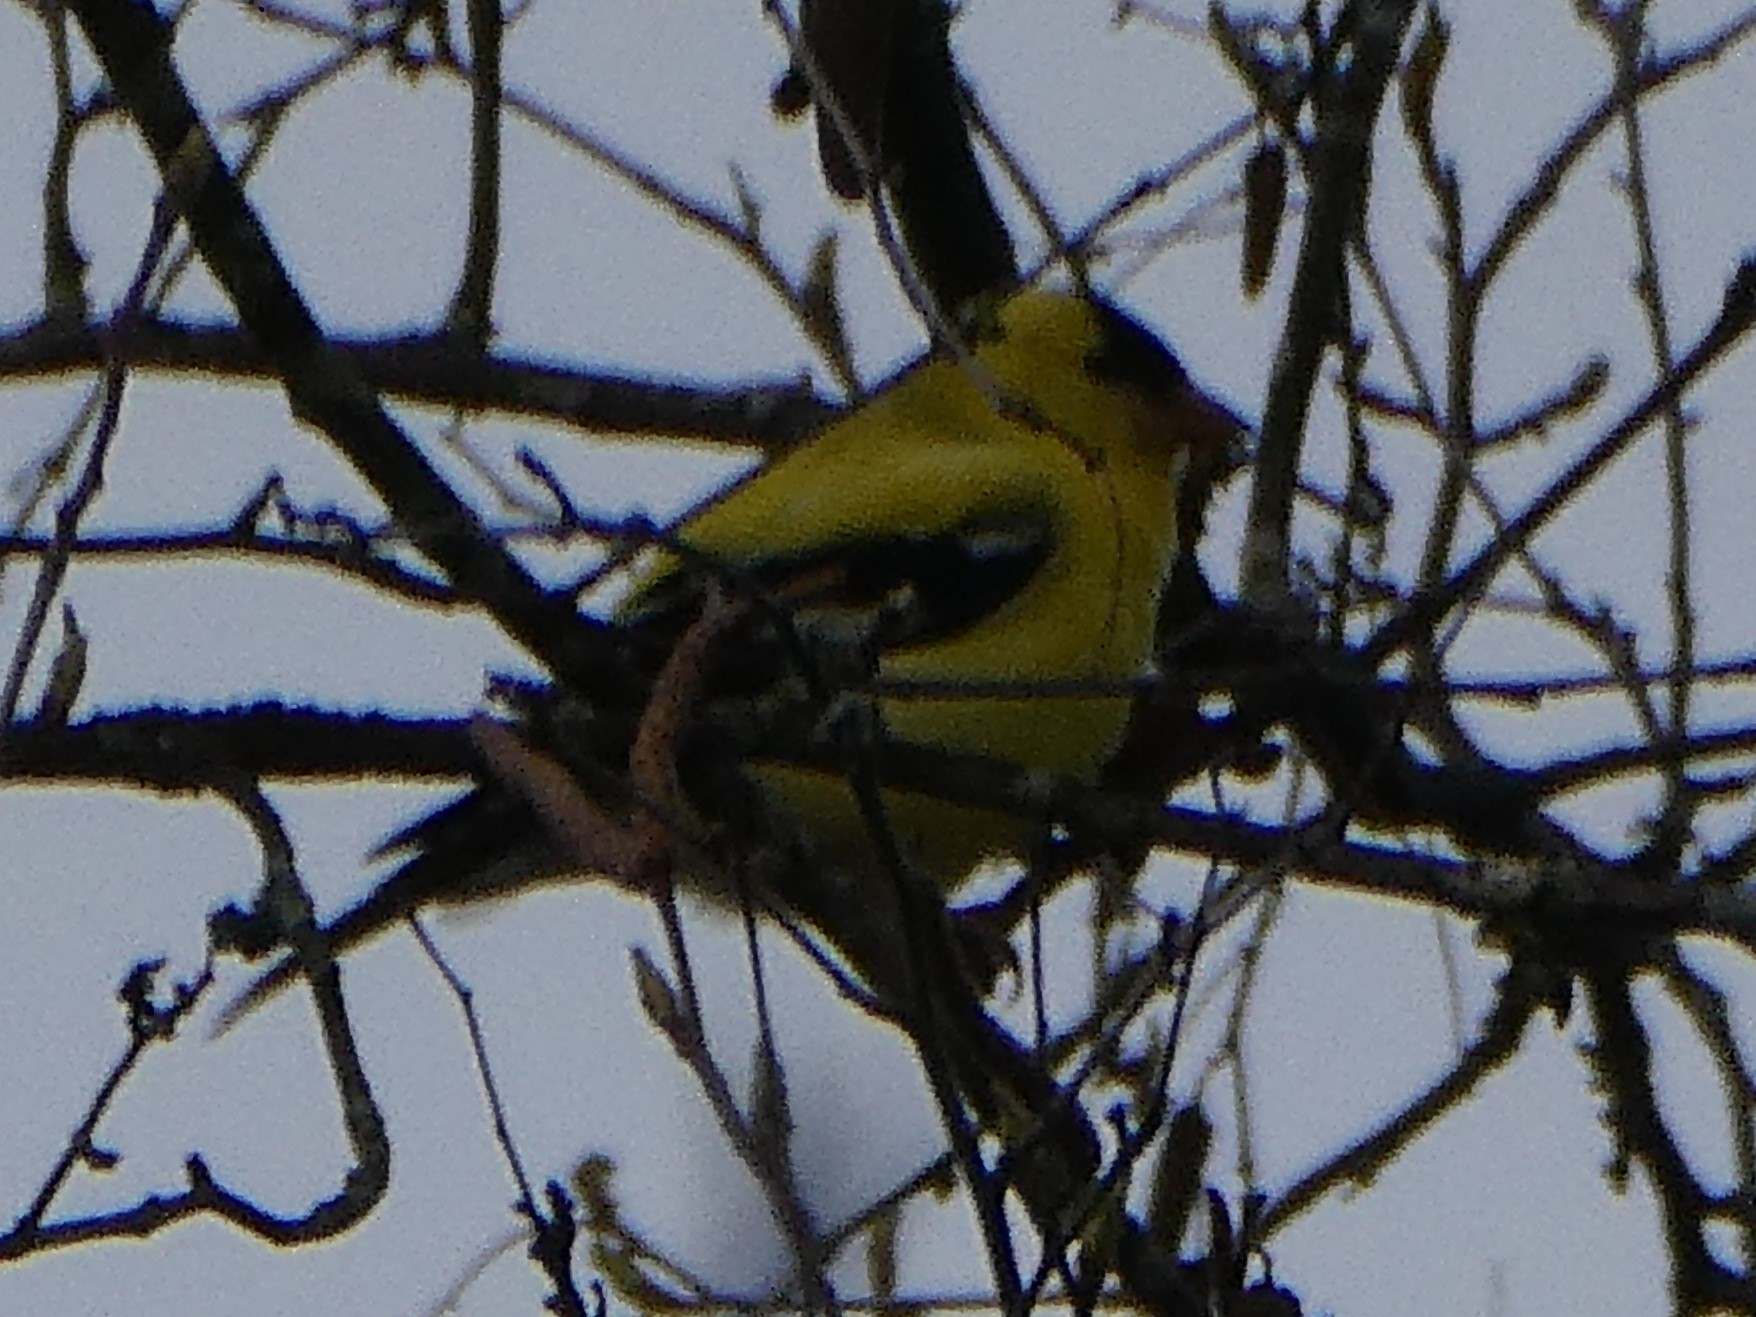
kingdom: Animalia
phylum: Chordata
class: Aves
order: Passeriformes
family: Fringillidae
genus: Spinus
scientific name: Spinus tristis
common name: American goldfinch
